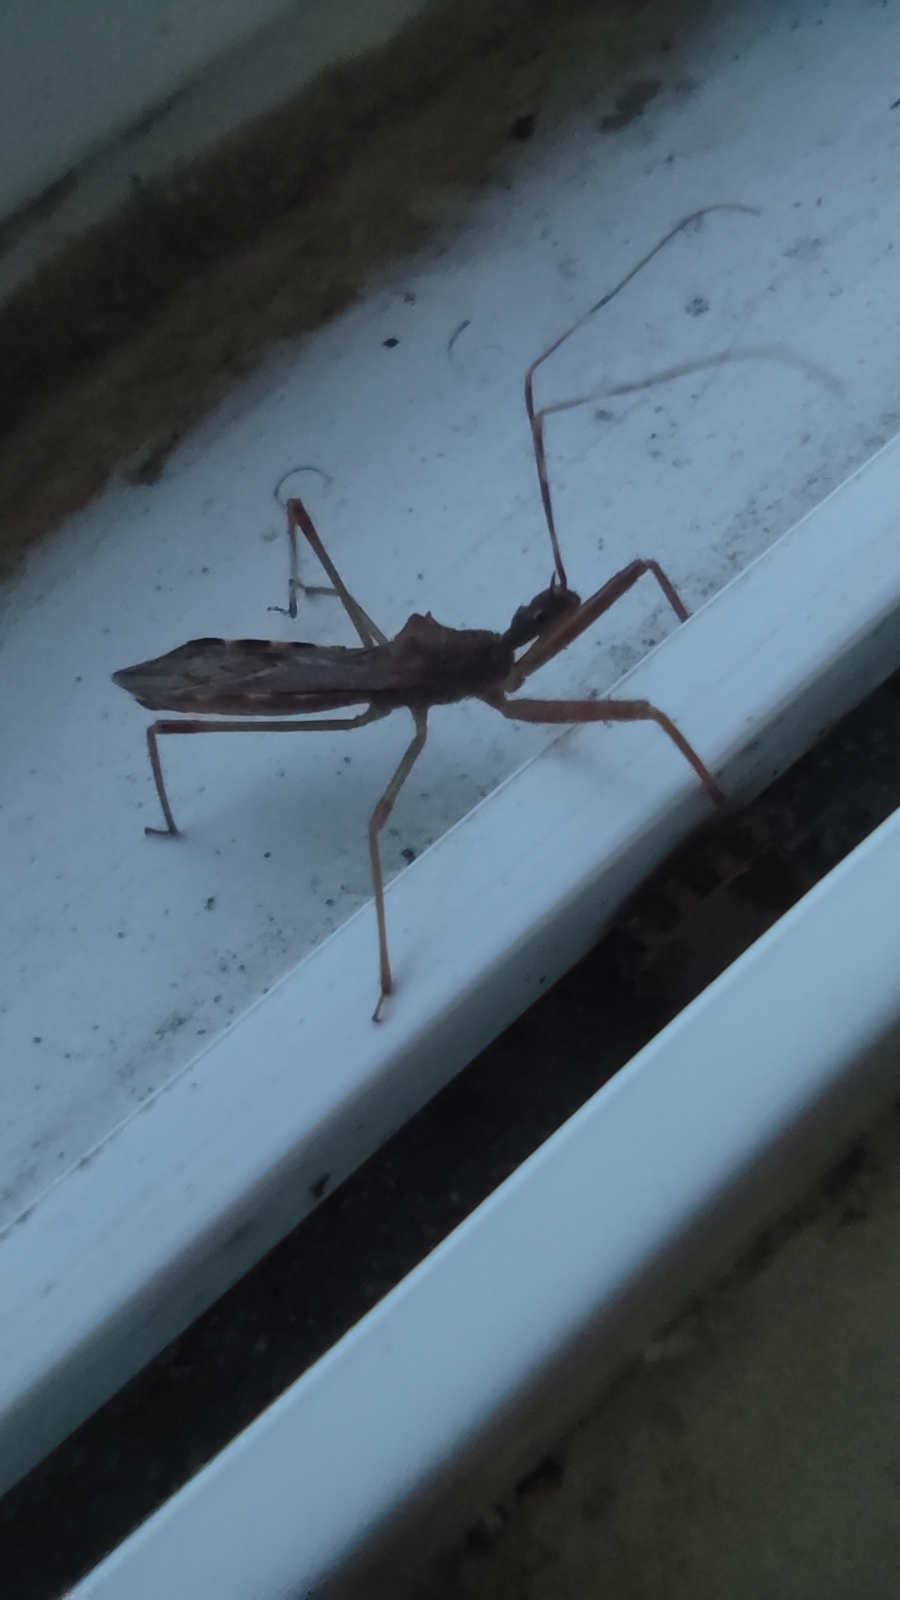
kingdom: Animalia
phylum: Arthropoda
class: Insecta
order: Hemiptera
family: Reduviidae
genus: Nagusta
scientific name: Nagusta goedelii
